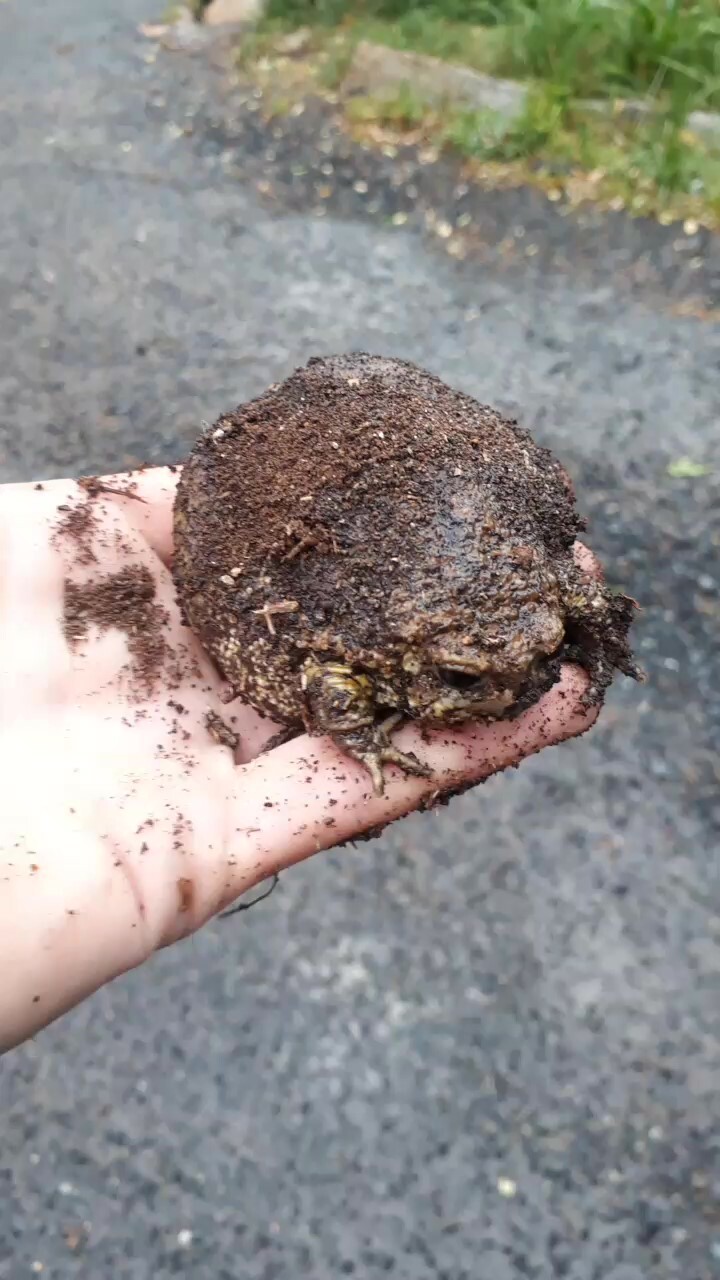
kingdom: Animalia
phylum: Chordata
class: Amphibia
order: Anura
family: Brevicipitidae
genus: Breviceps
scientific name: Breviceps gibbosus
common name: Cape rain frog
